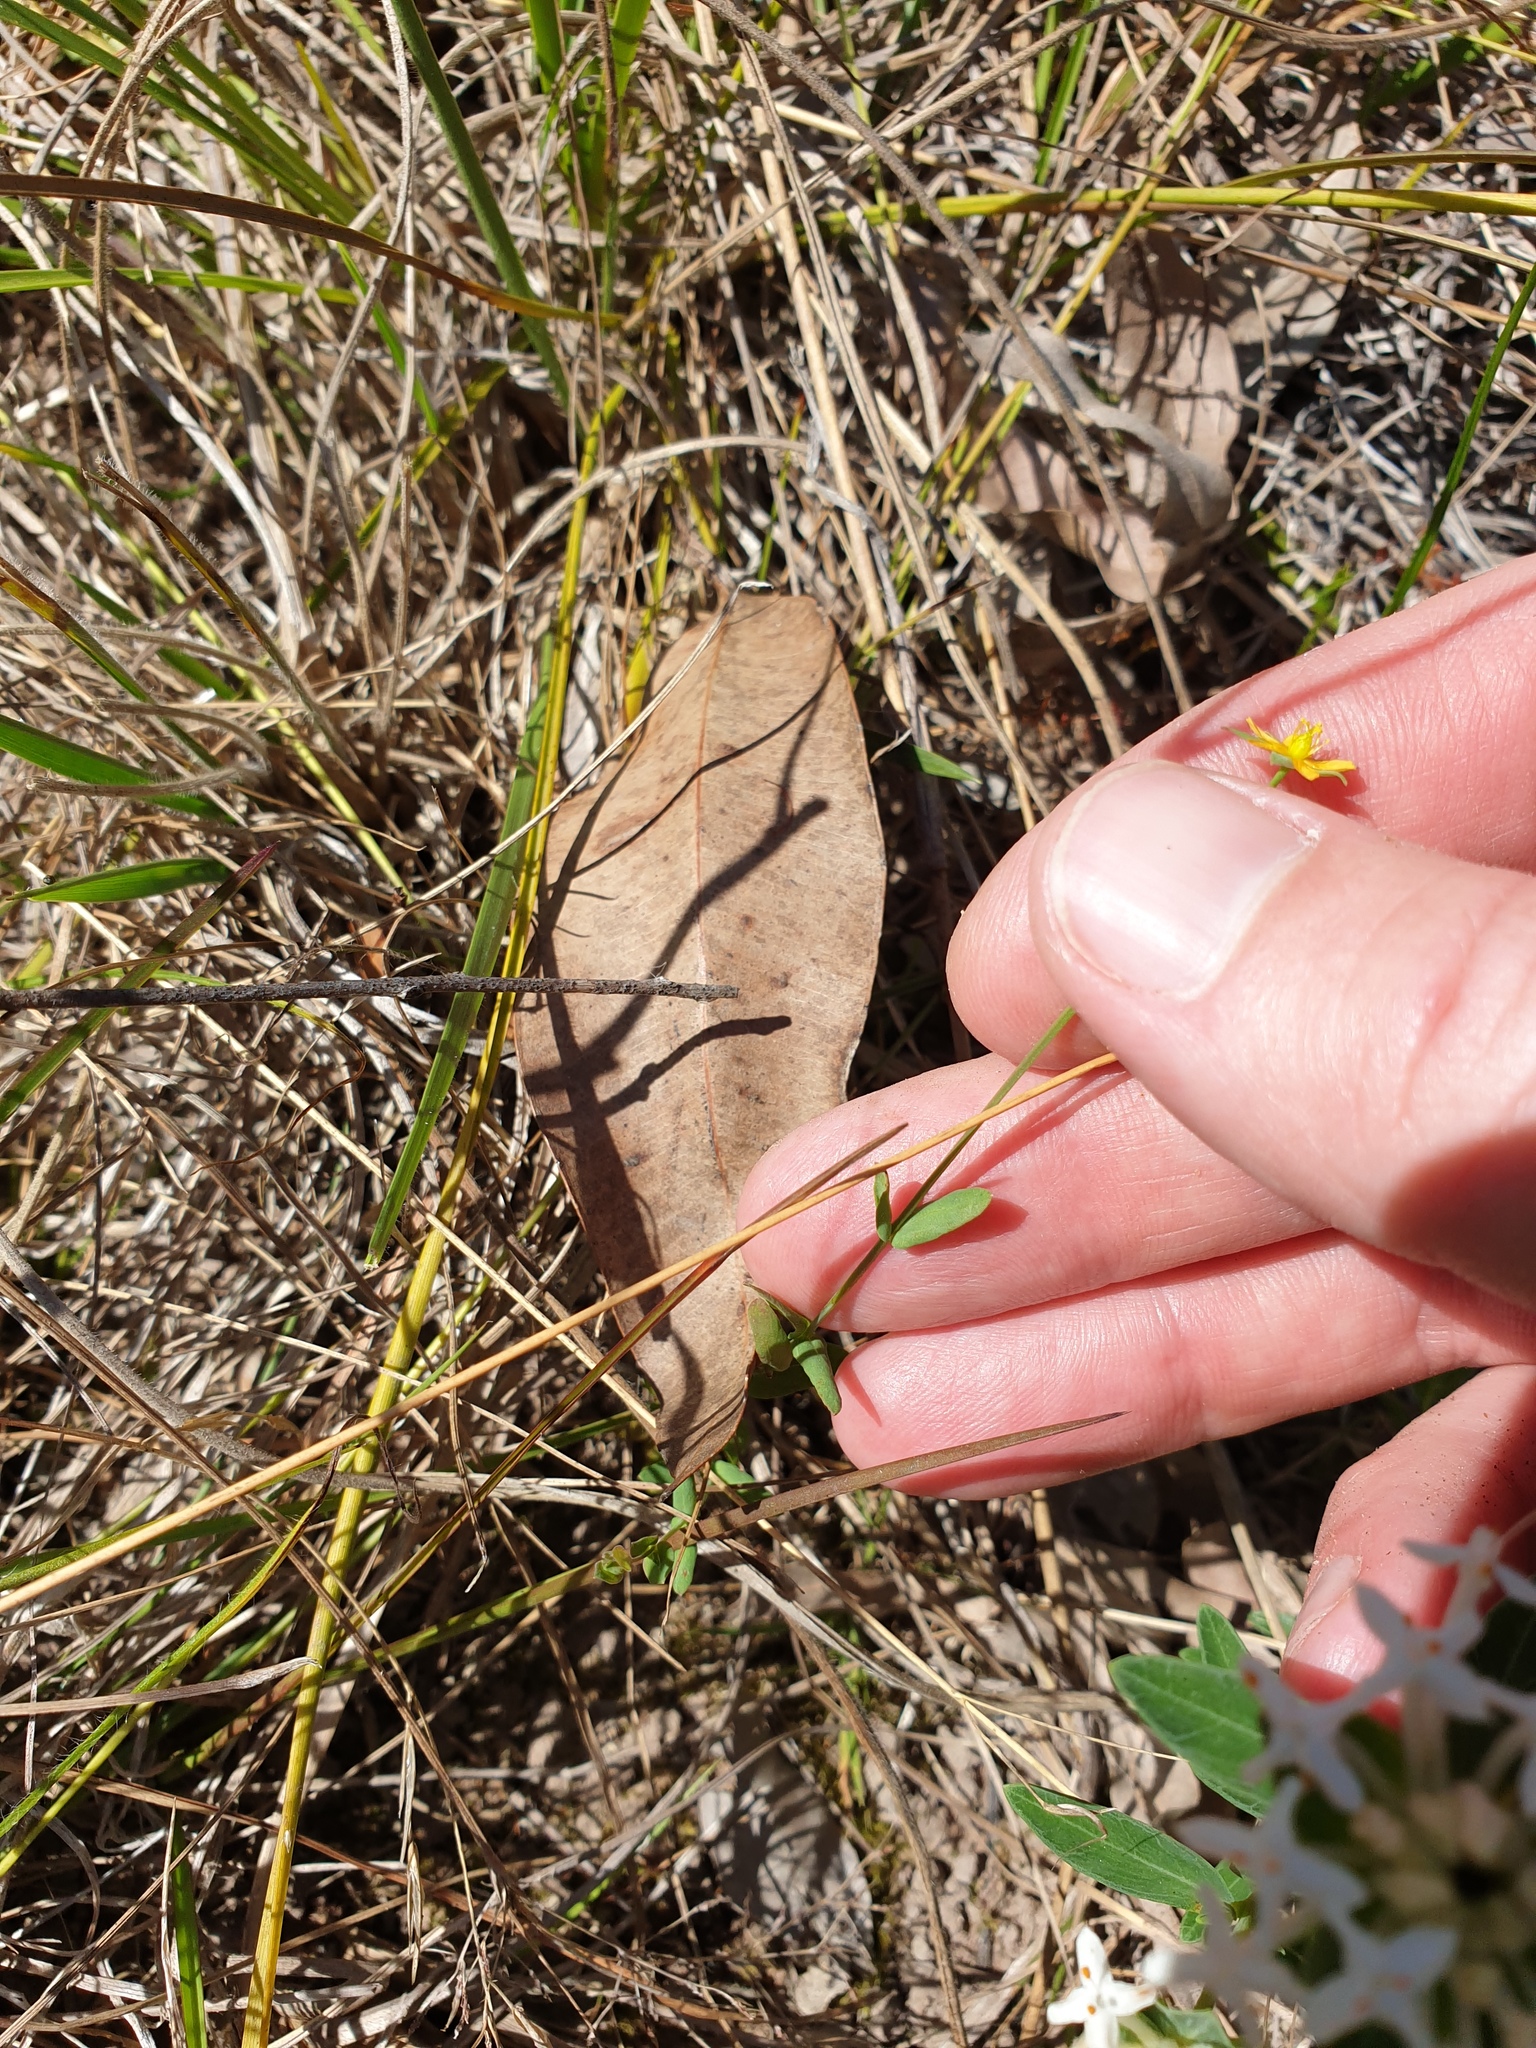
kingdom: Plantae
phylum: Tracheophyta
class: Magnoliopsida
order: Malpighiales
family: Hypericaceae
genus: Hypericum
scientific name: Hypericum gramineum
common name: Grassy st. johnswort
